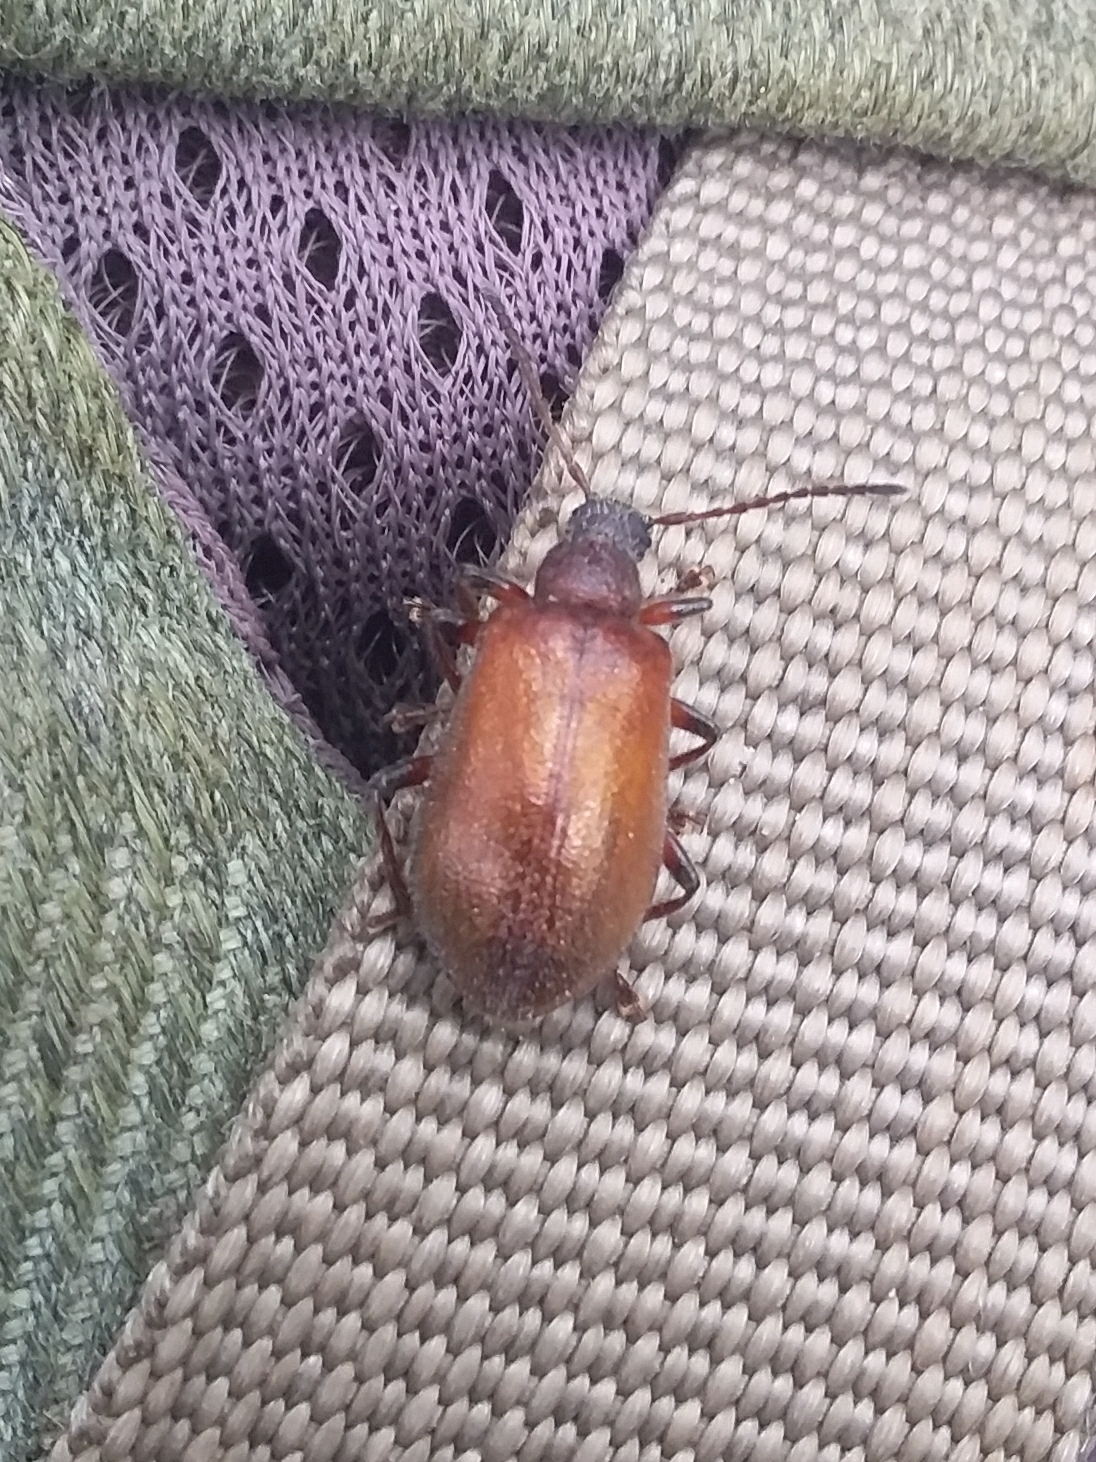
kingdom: Animalia
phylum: Arthropoda
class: Insecta
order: Coleoptera
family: Tenebrionidae
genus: Ecnolagria
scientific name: Ecnolagria
